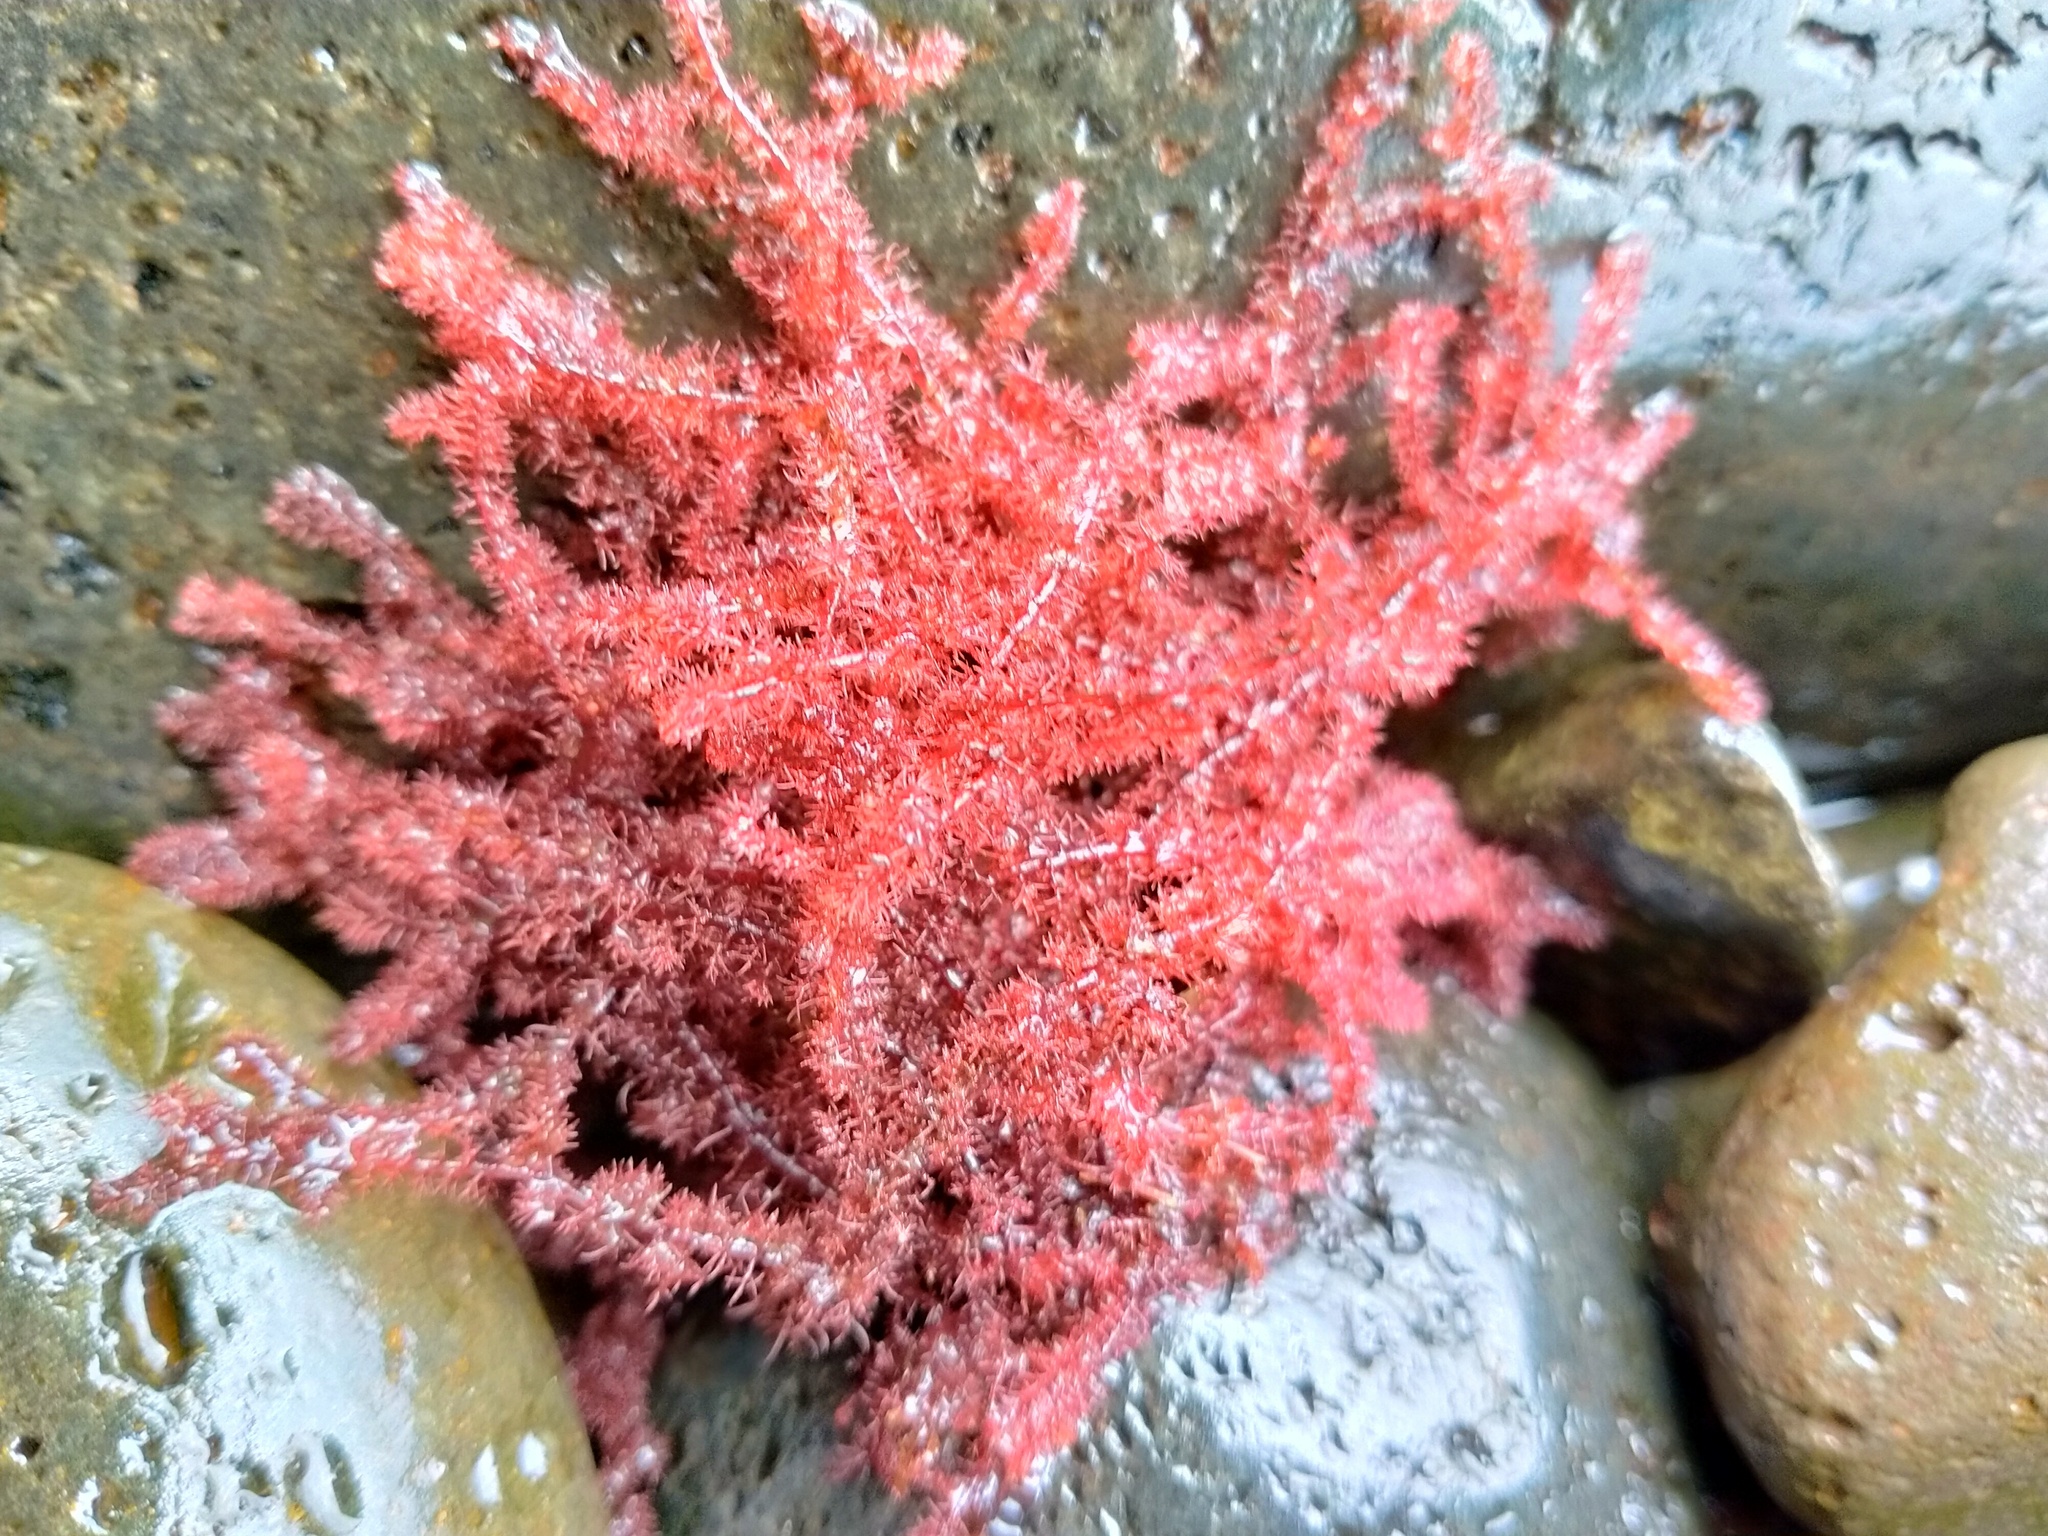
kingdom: Plantae
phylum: Rhodophyta
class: Florideophyceae
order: Ceramiales
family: Rhodomelaceae
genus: Echinothamnion
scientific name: Echinothamnion
